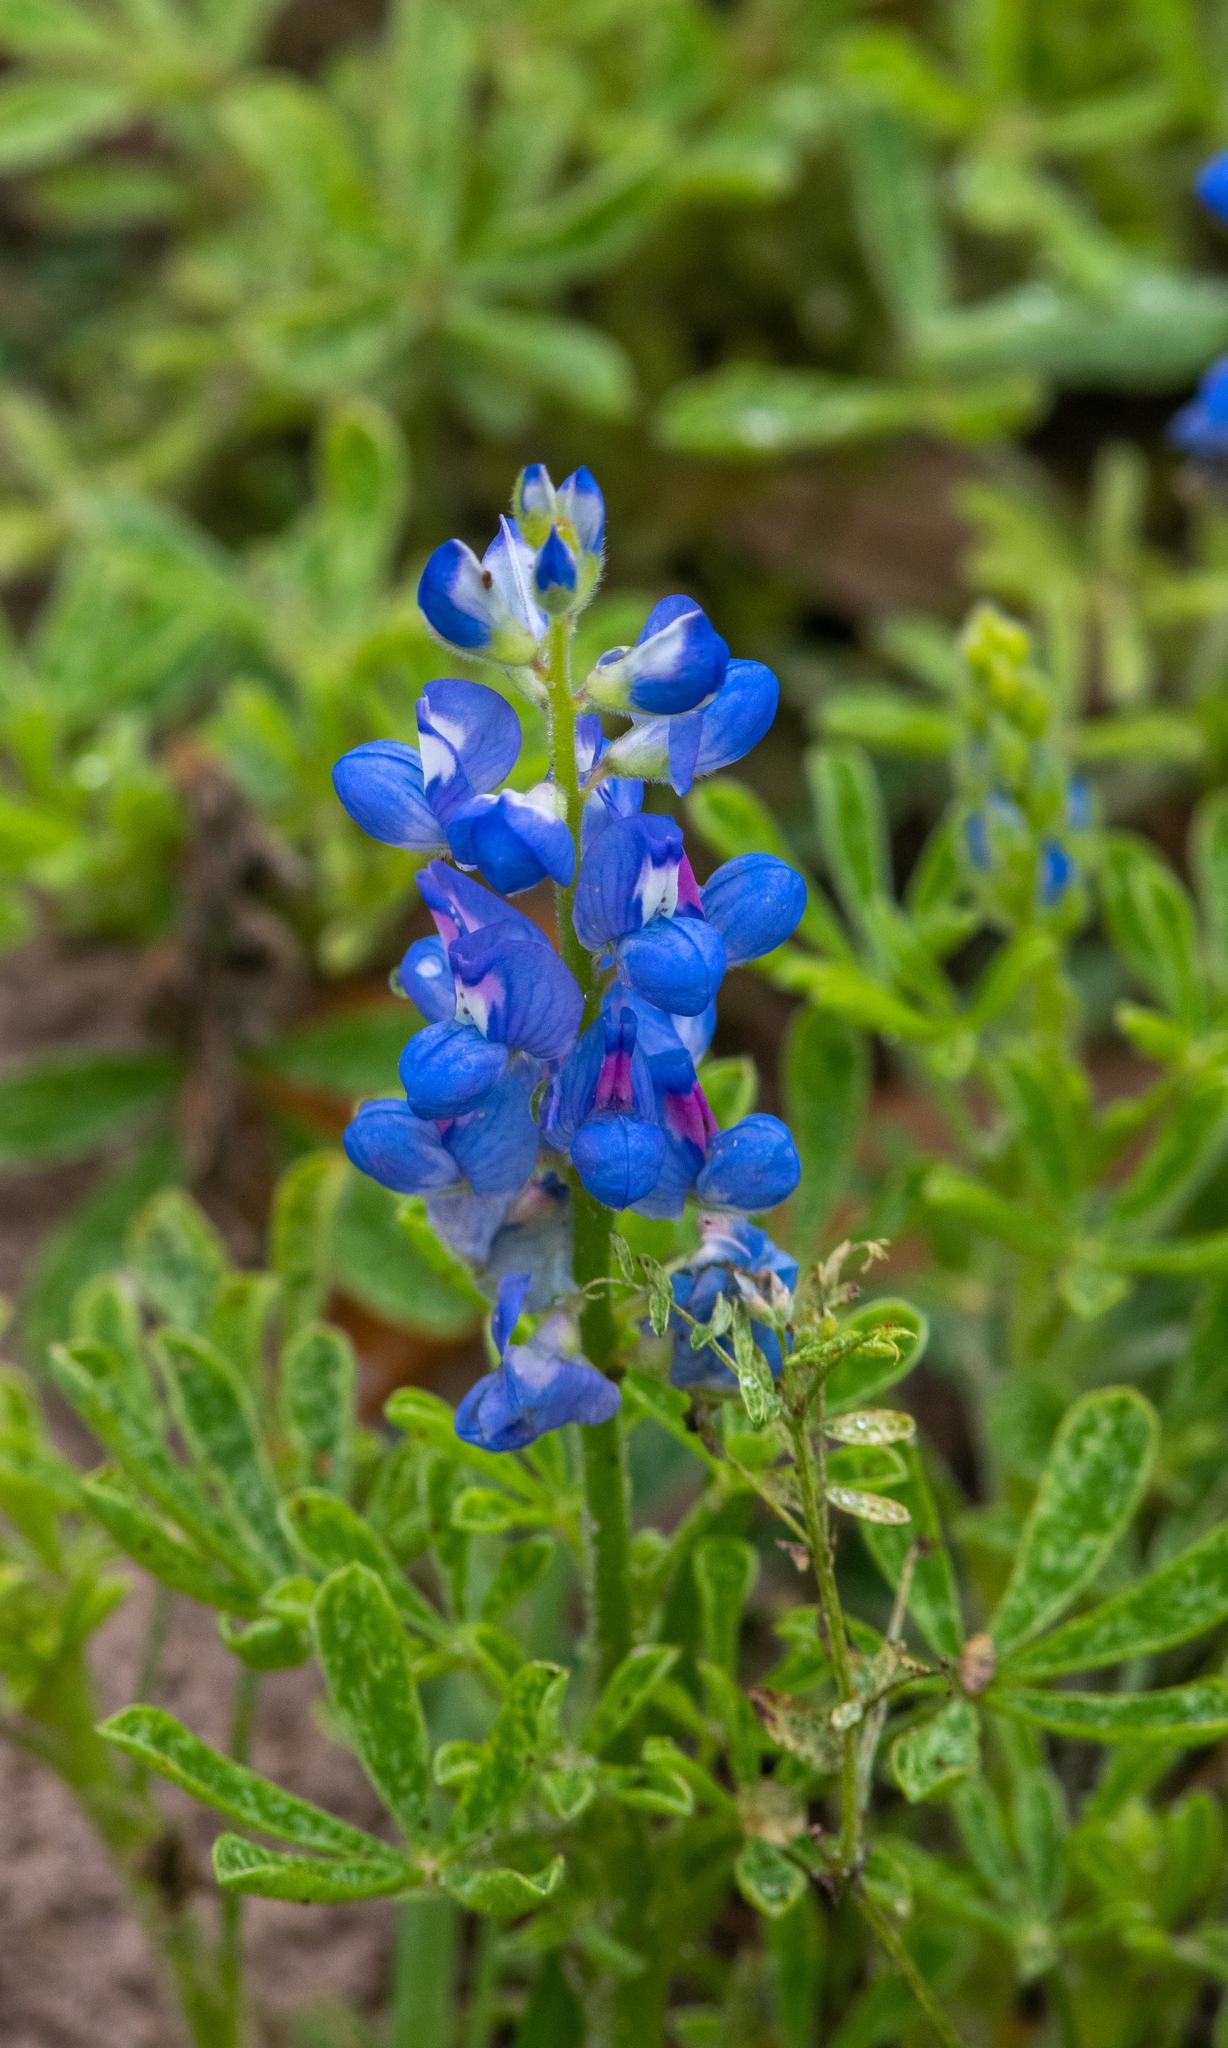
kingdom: Plantae
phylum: Tracheophyta
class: Magnoliopsida
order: Fabales
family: Fabaceae
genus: Lupinus
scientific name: Lupinus subcarnosus
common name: Texas bluebonnet
